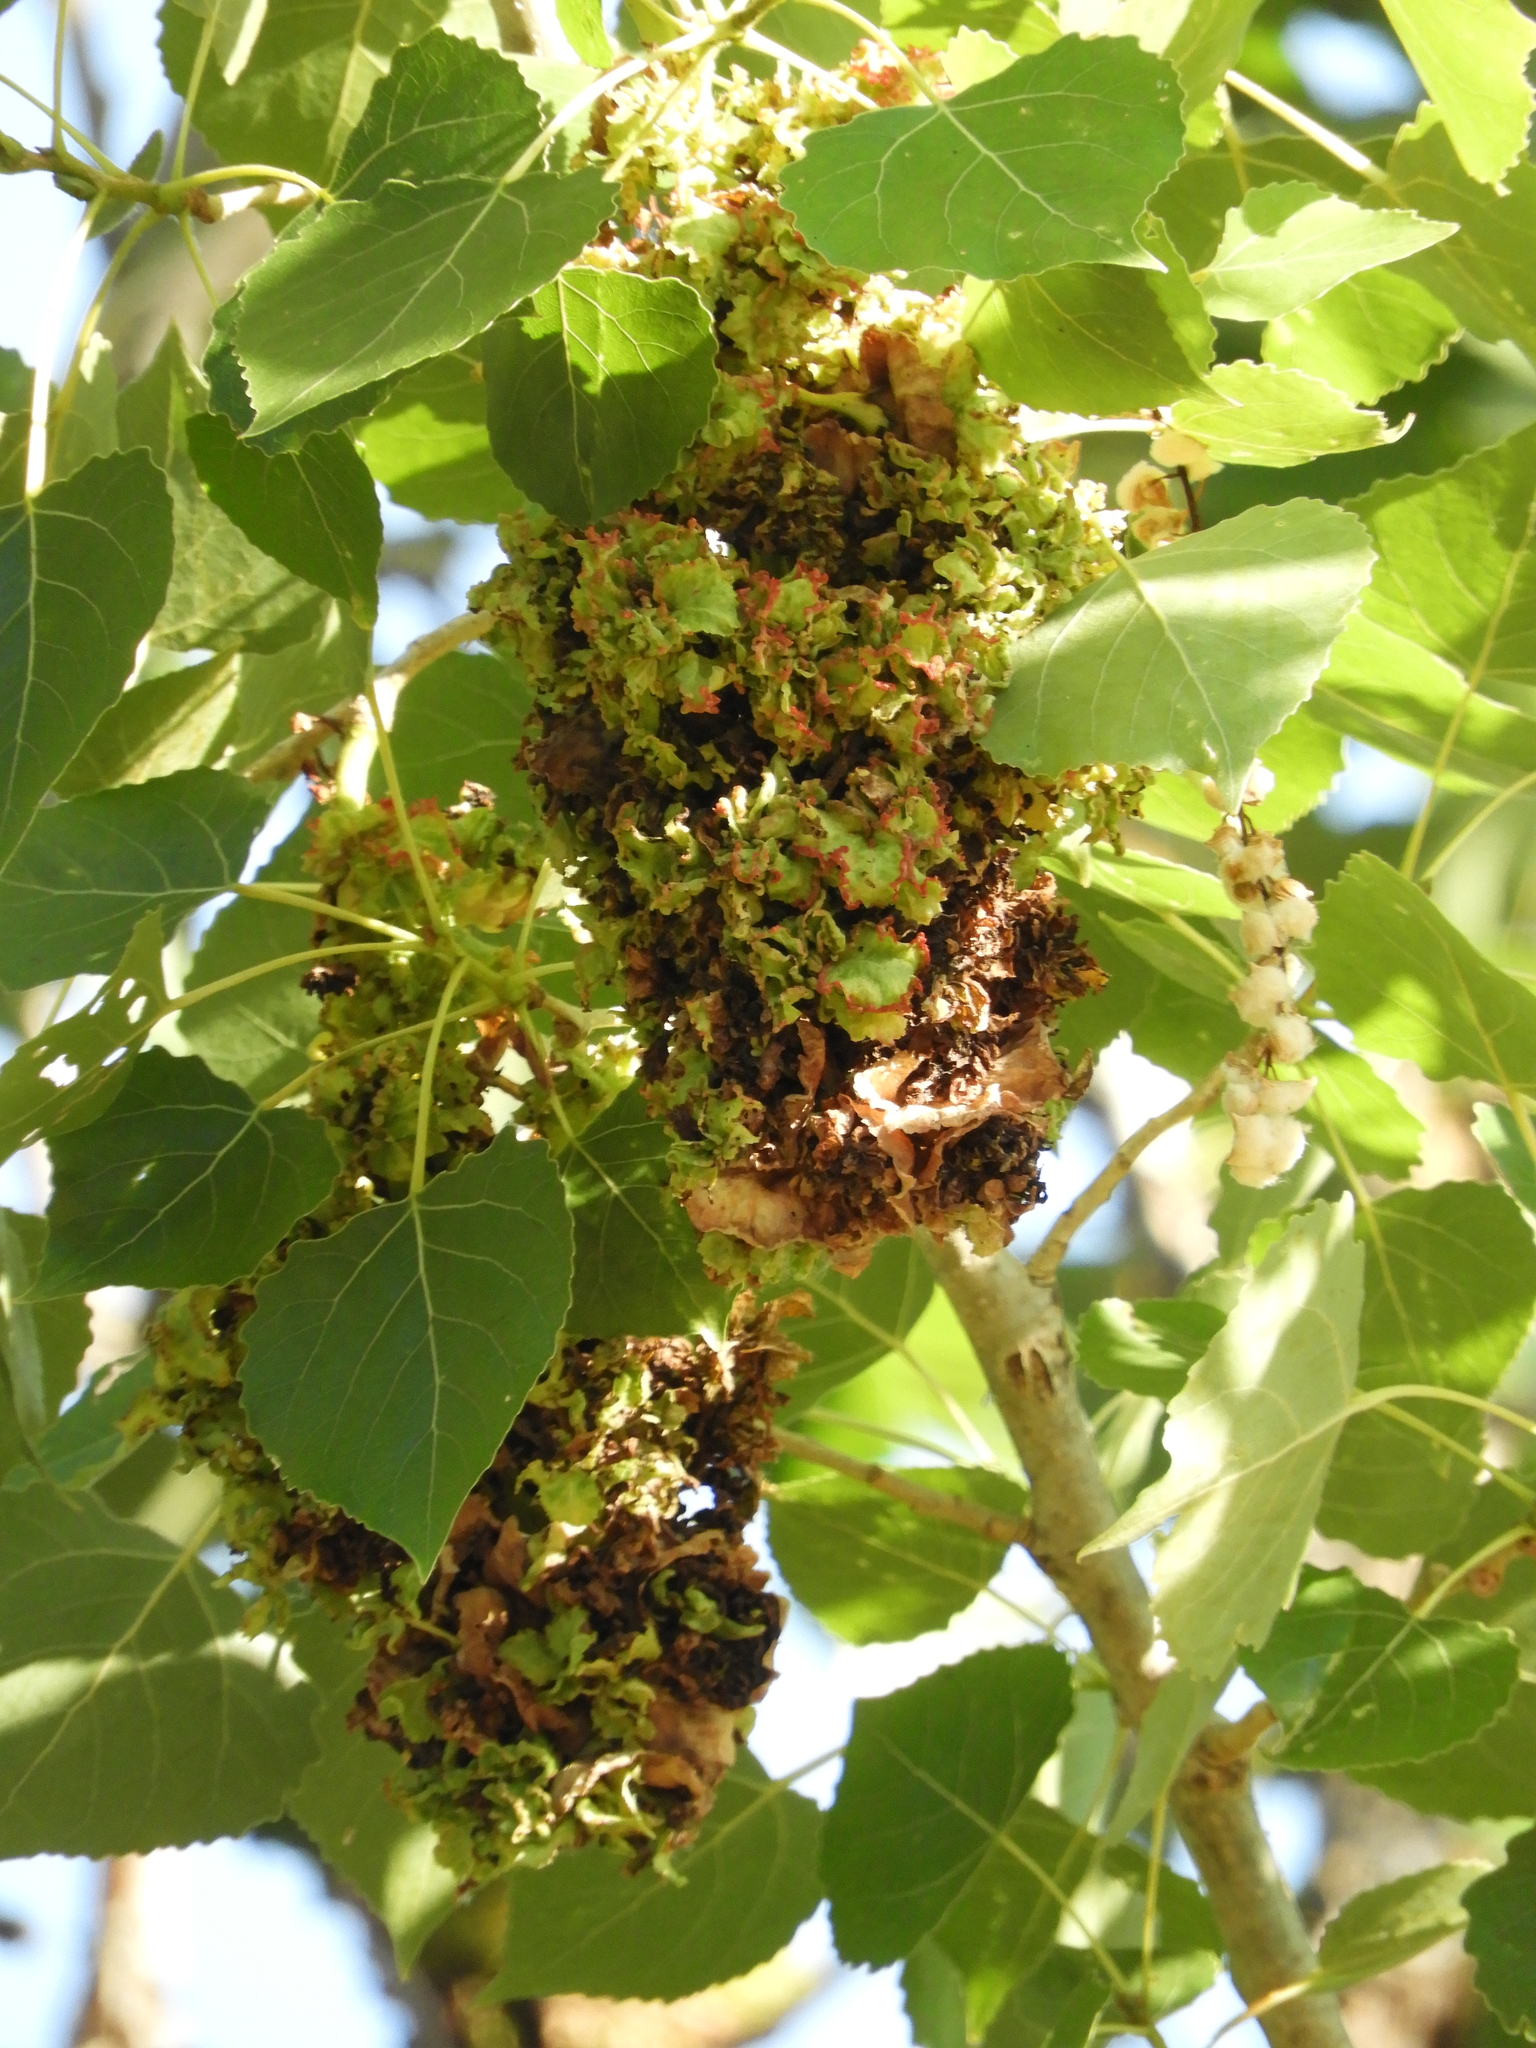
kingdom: Animalia
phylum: Arthropoda
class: Arachnida
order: Trombidiformes
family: Eriophyidae
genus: Eriophyes
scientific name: Eriophyes
